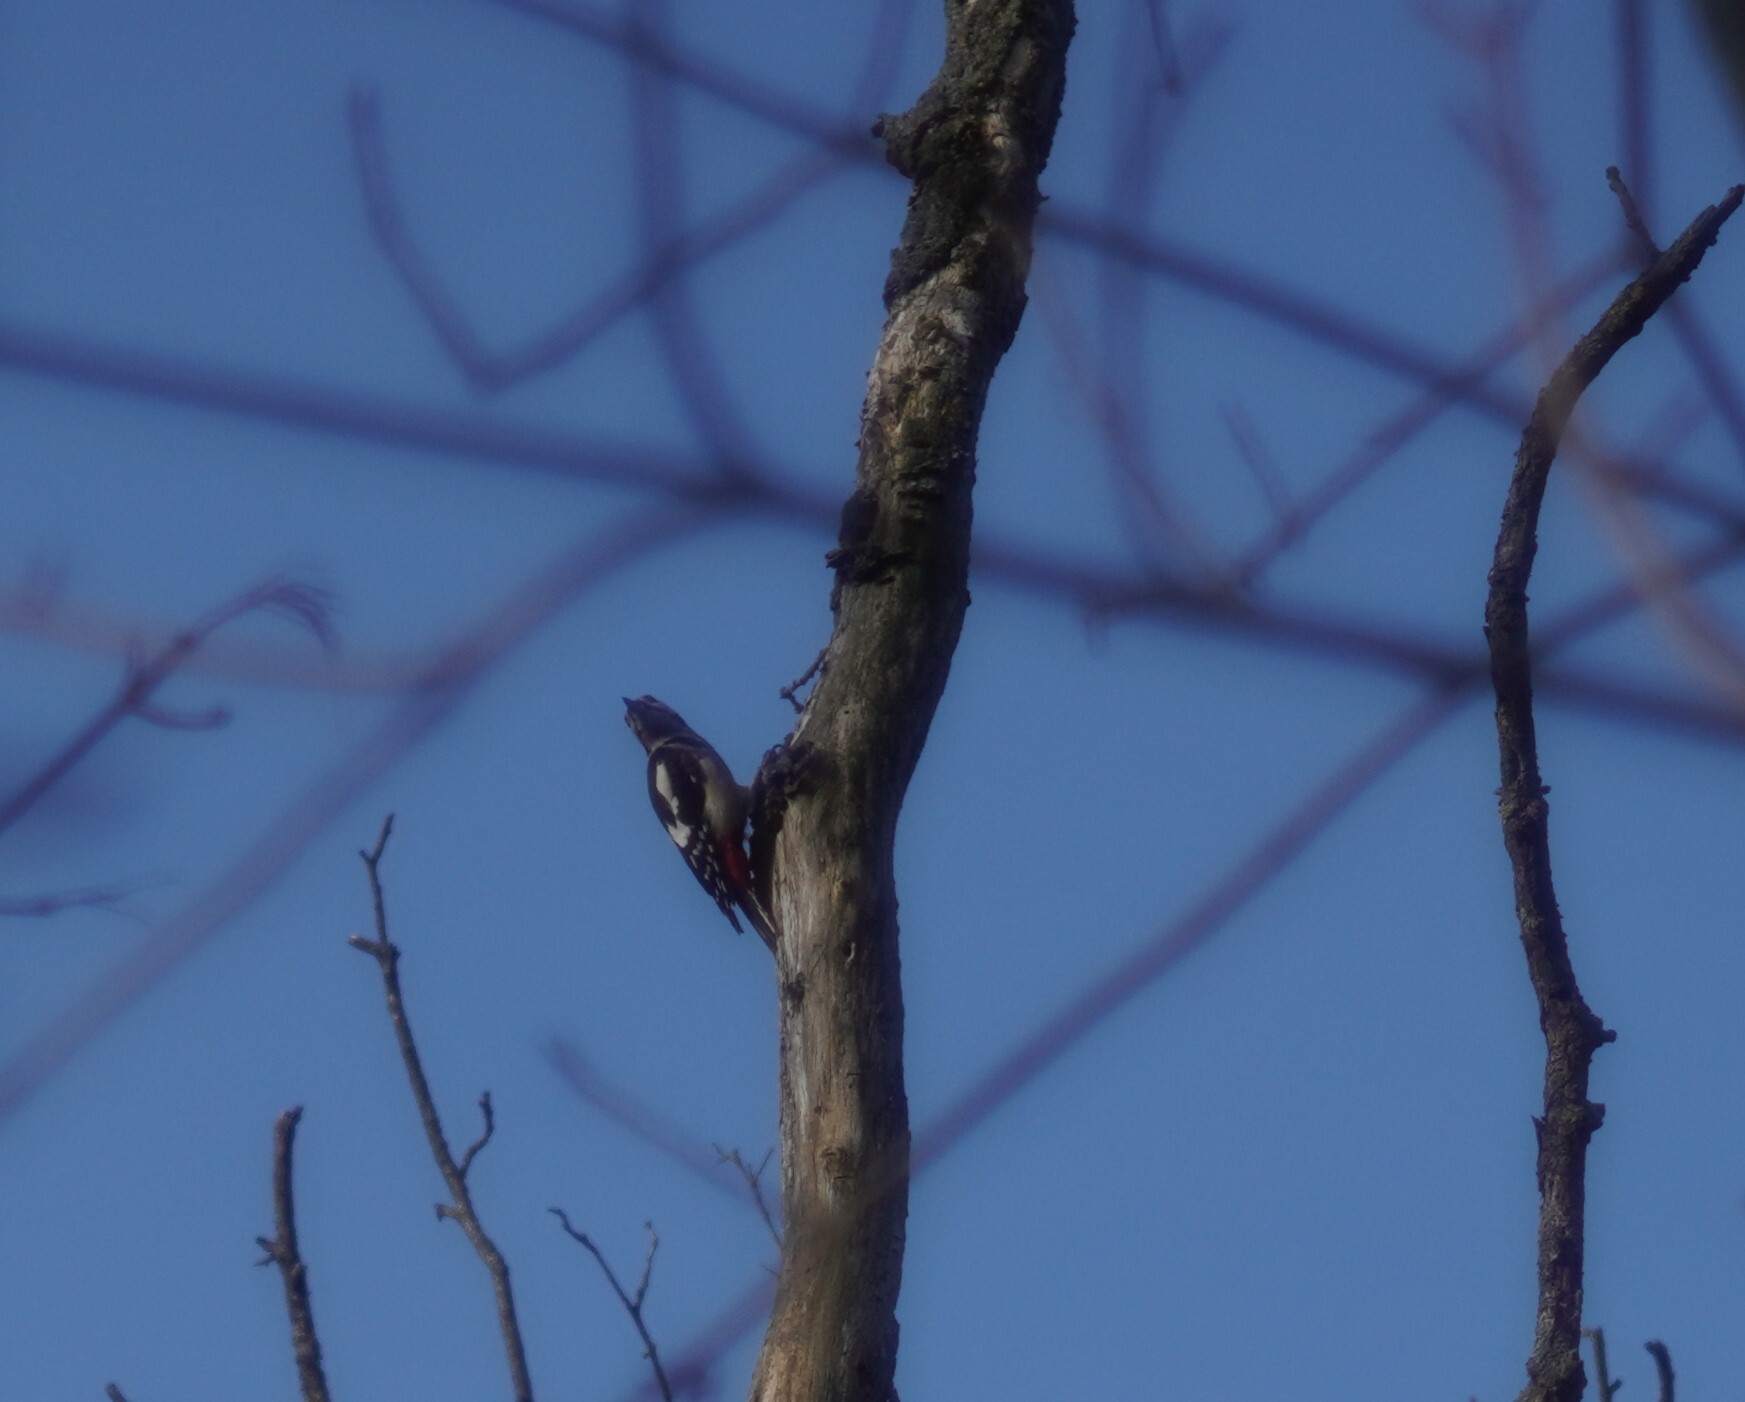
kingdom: Animalia
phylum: Chordata
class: Aves
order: Piciformes
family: Picidae
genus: Dendrocopos
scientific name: Dendrocopos major
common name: Great spotted woodpecker
